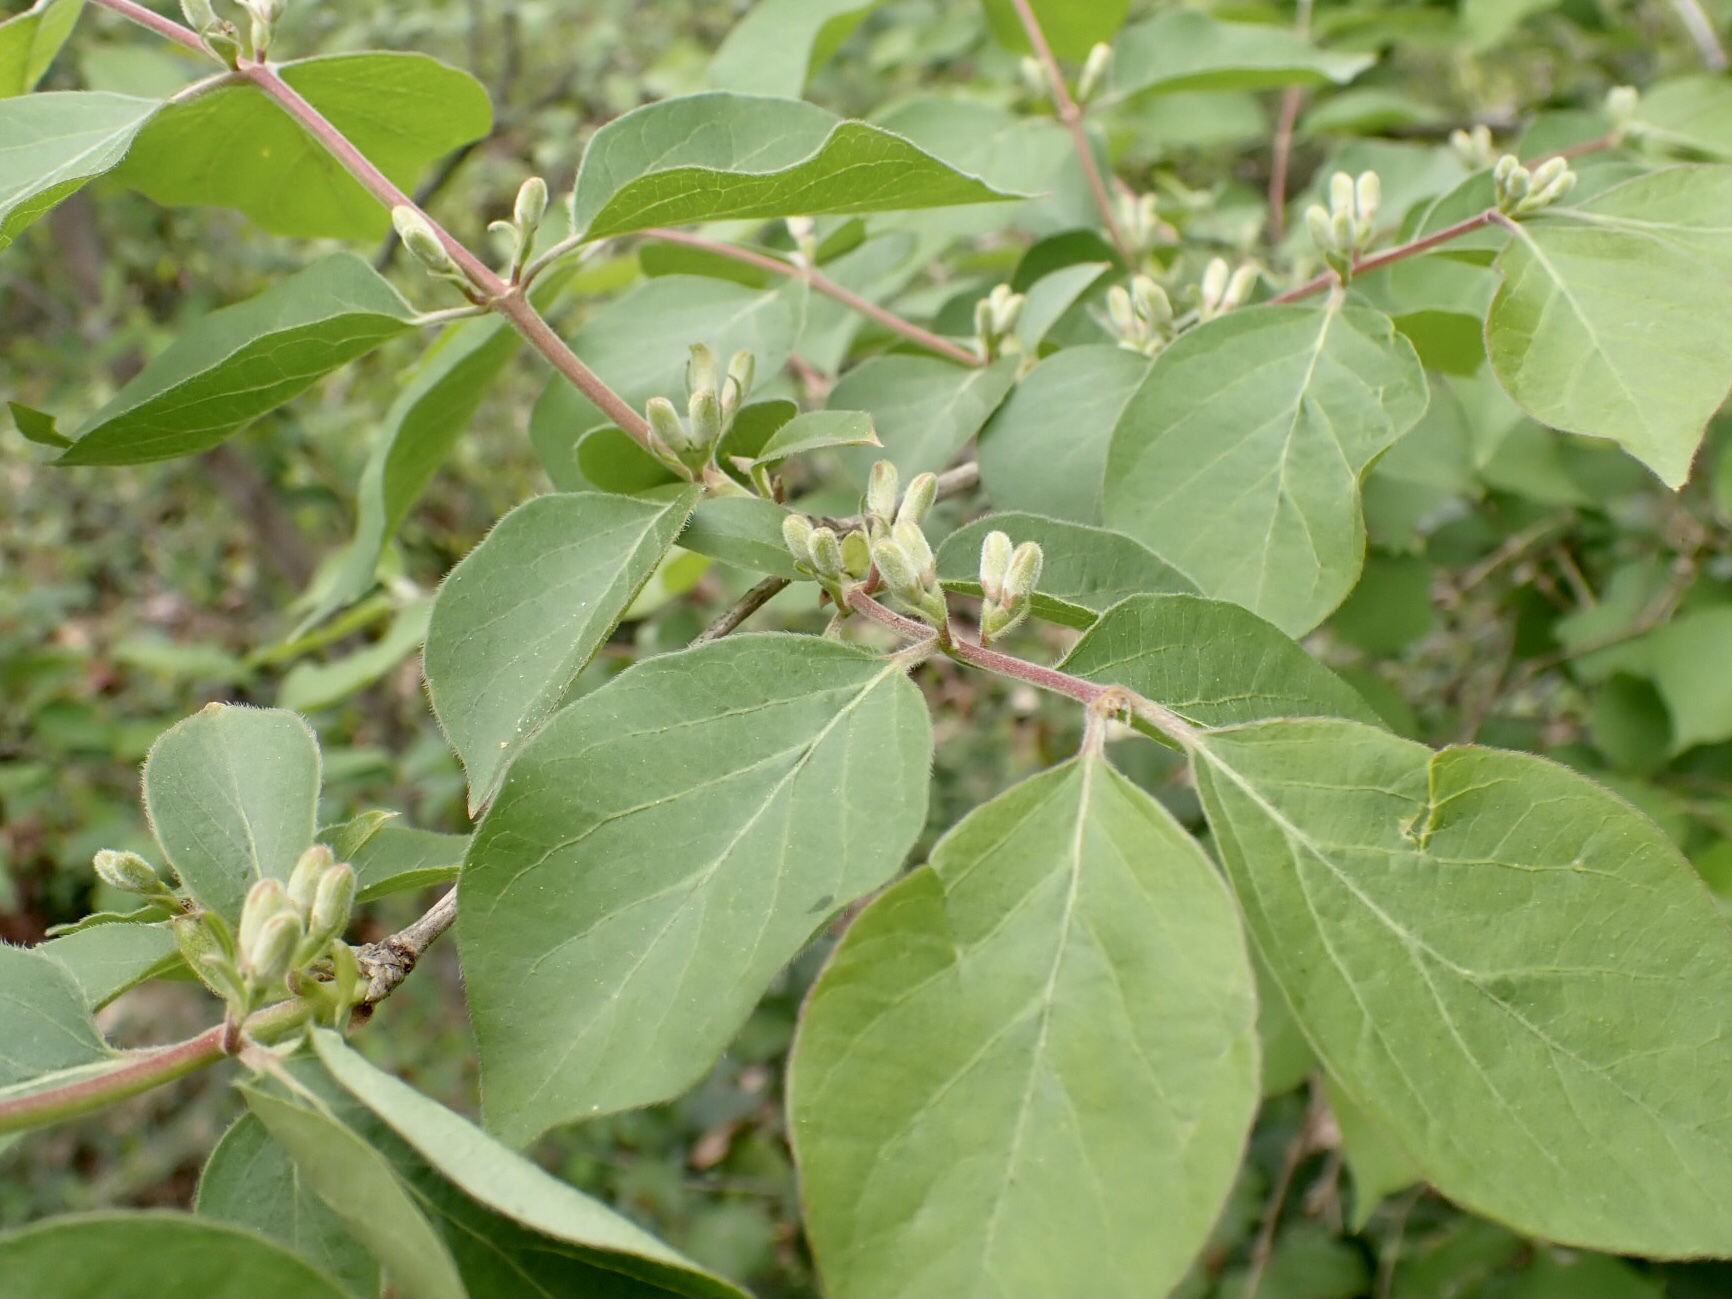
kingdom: Plantae
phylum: Tracheophyta
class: Magnoliopsida
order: Dipsacales
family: Caprifoliaceae
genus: Lonicera
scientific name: Lonicera maackii
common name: Amur honeysuckle
